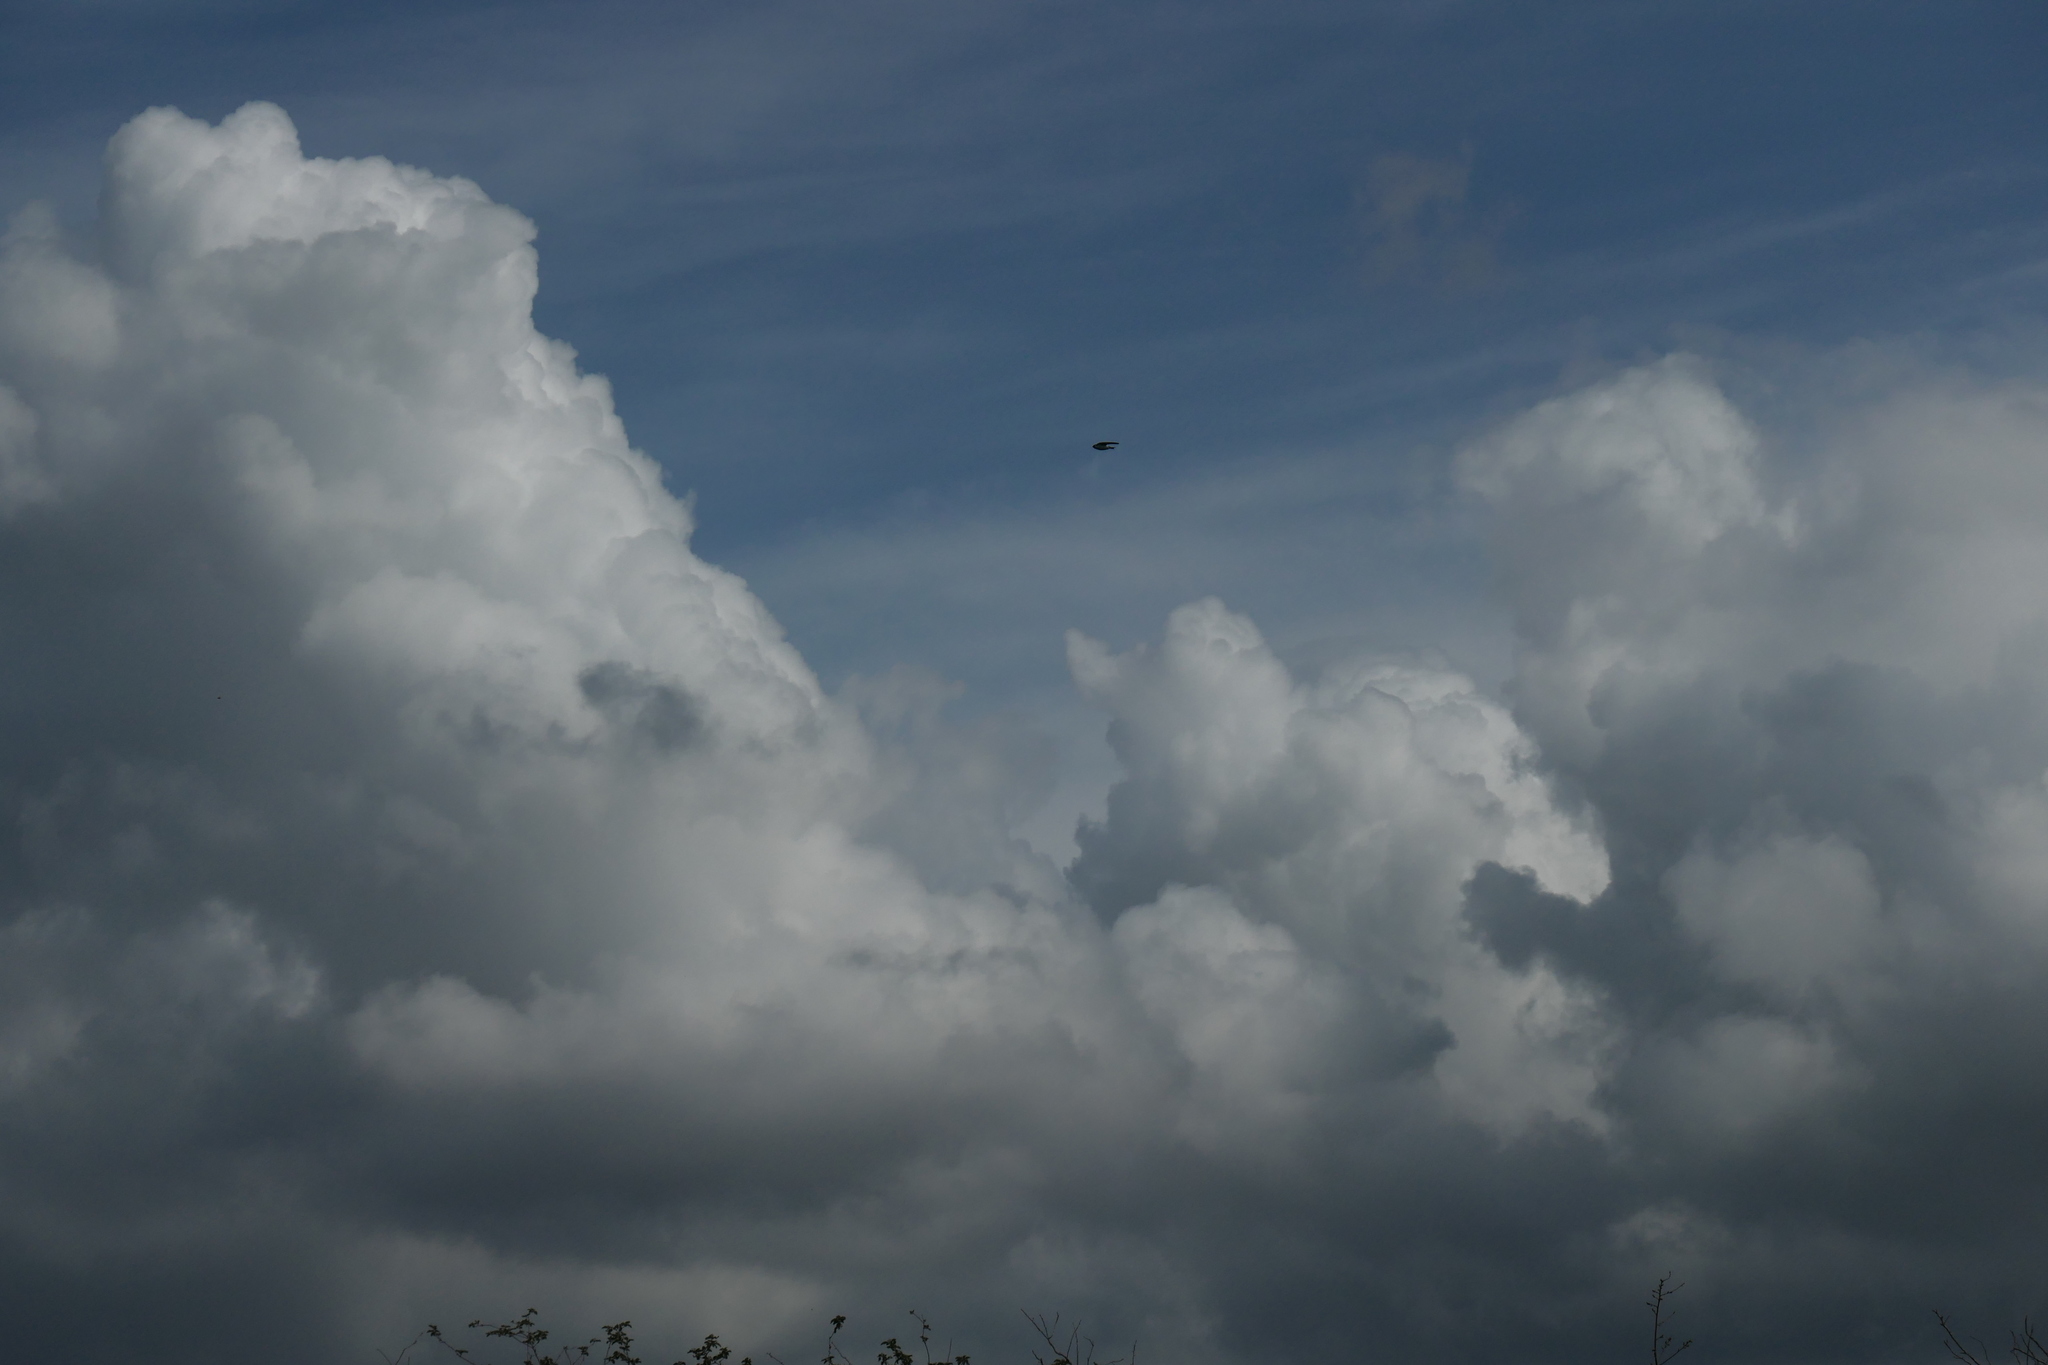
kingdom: Animalia
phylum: Chordata
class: Aves
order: Accipitriformes
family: Accipitridae
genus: Haliaeetus
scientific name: Haliaeetus leucocephalus
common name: Bald eagle
